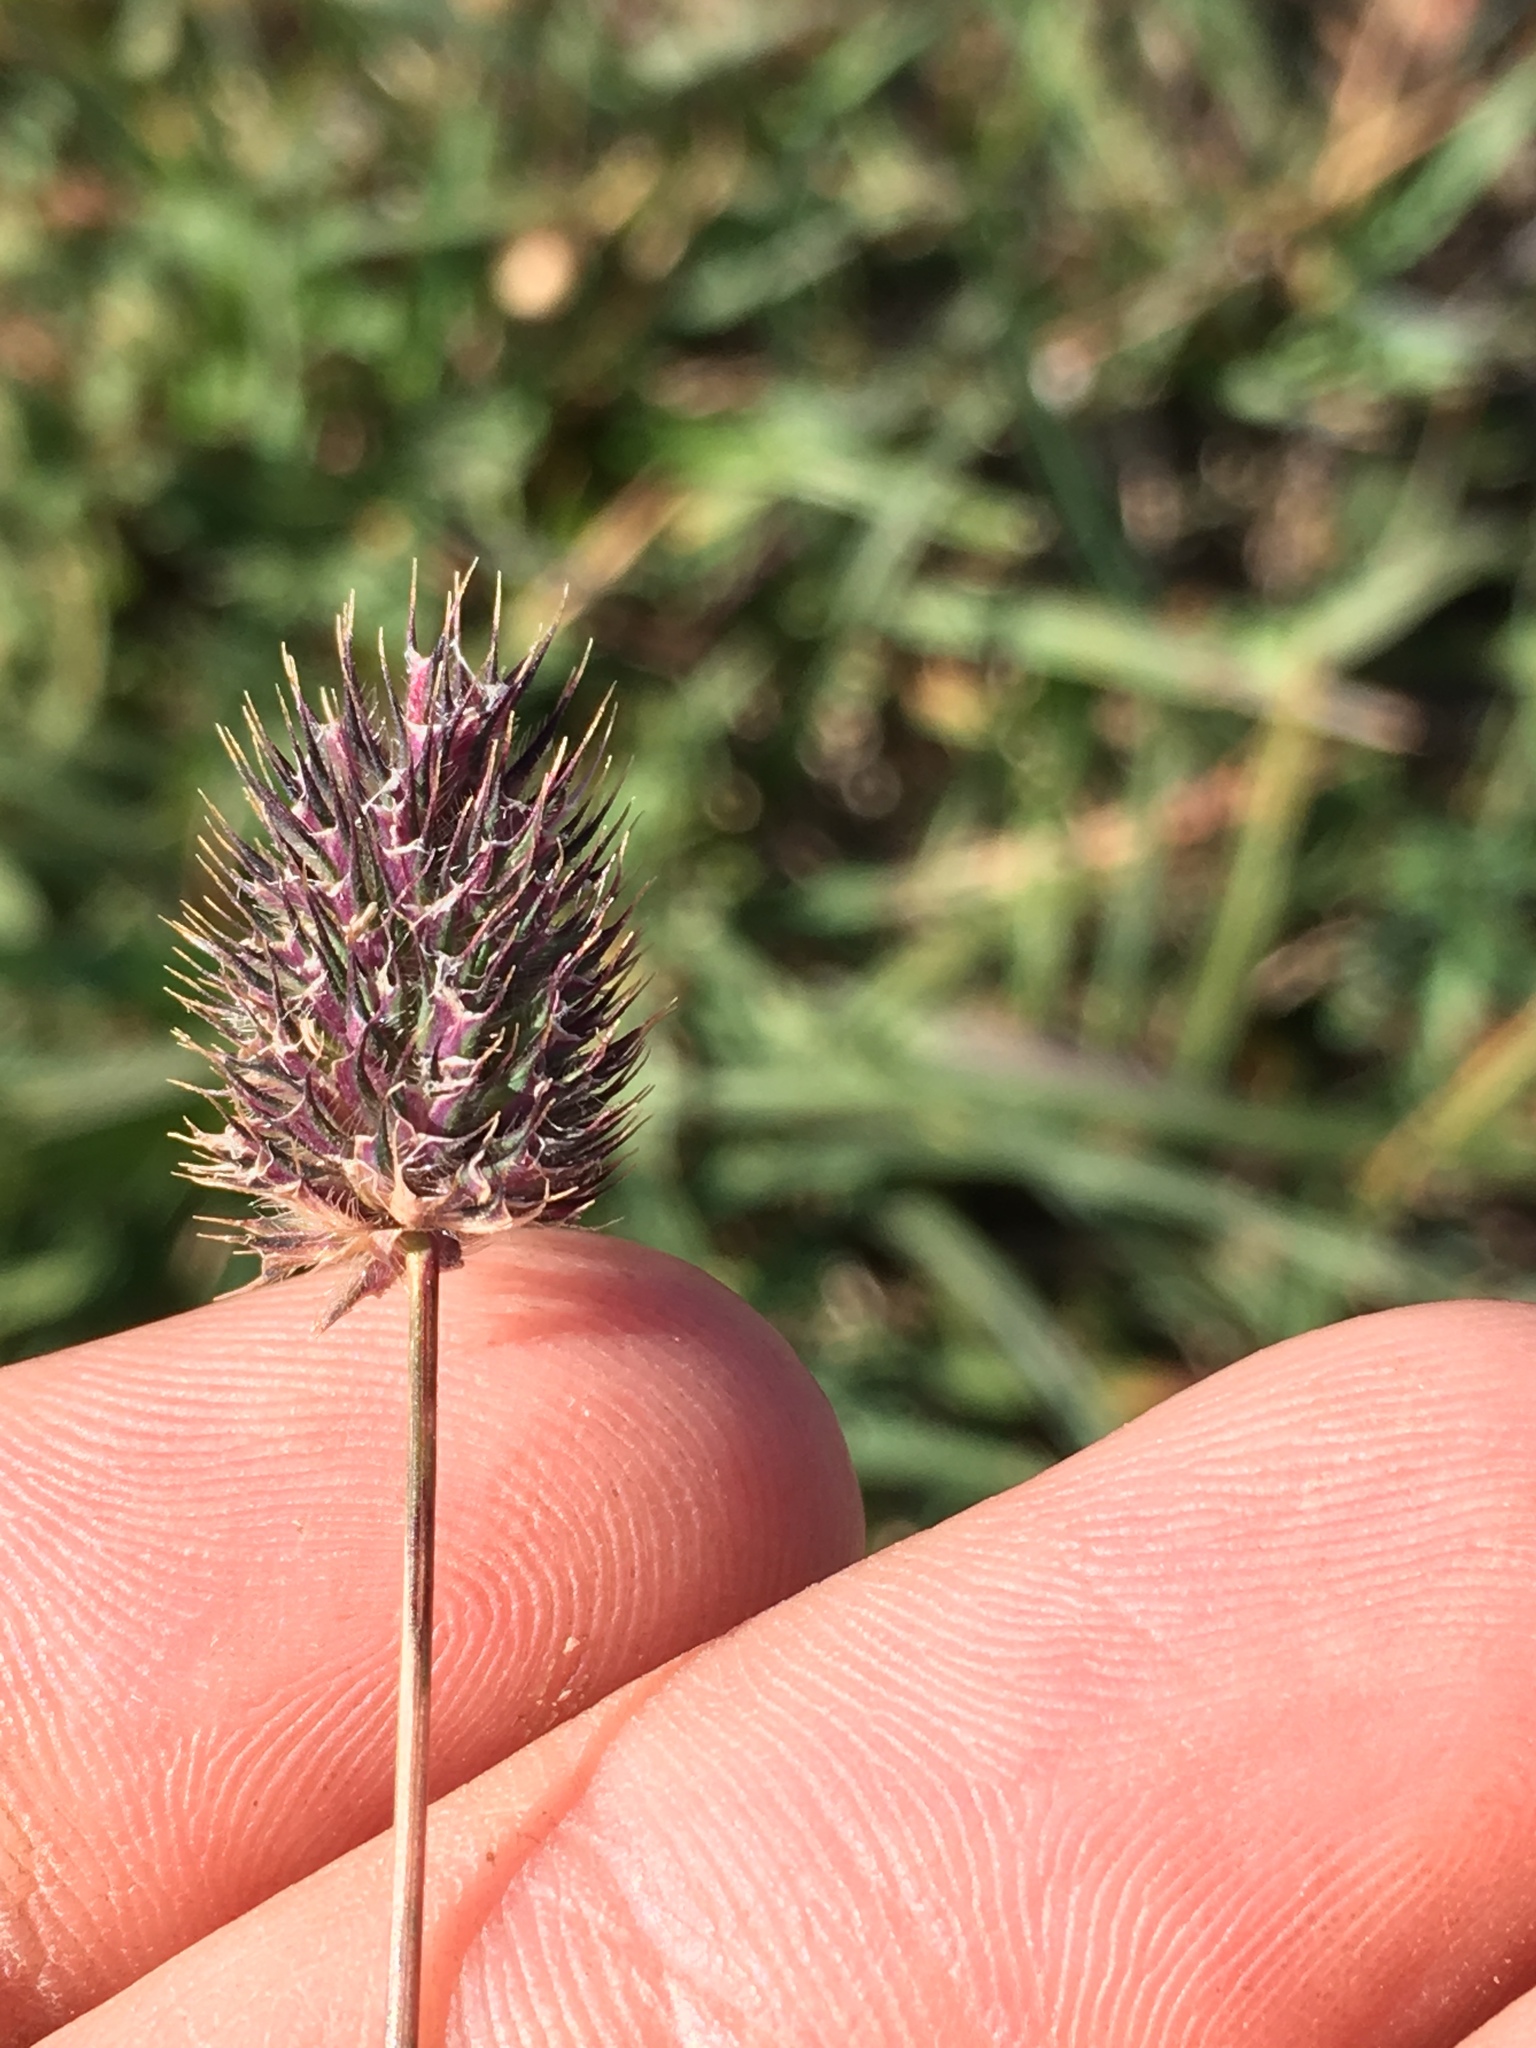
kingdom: Plantae
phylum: Tracheophyta
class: Liliopsida
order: Poales
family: Poaceae
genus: Phleum
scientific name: Phleum alpinum
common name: Alpine cat's-tail
